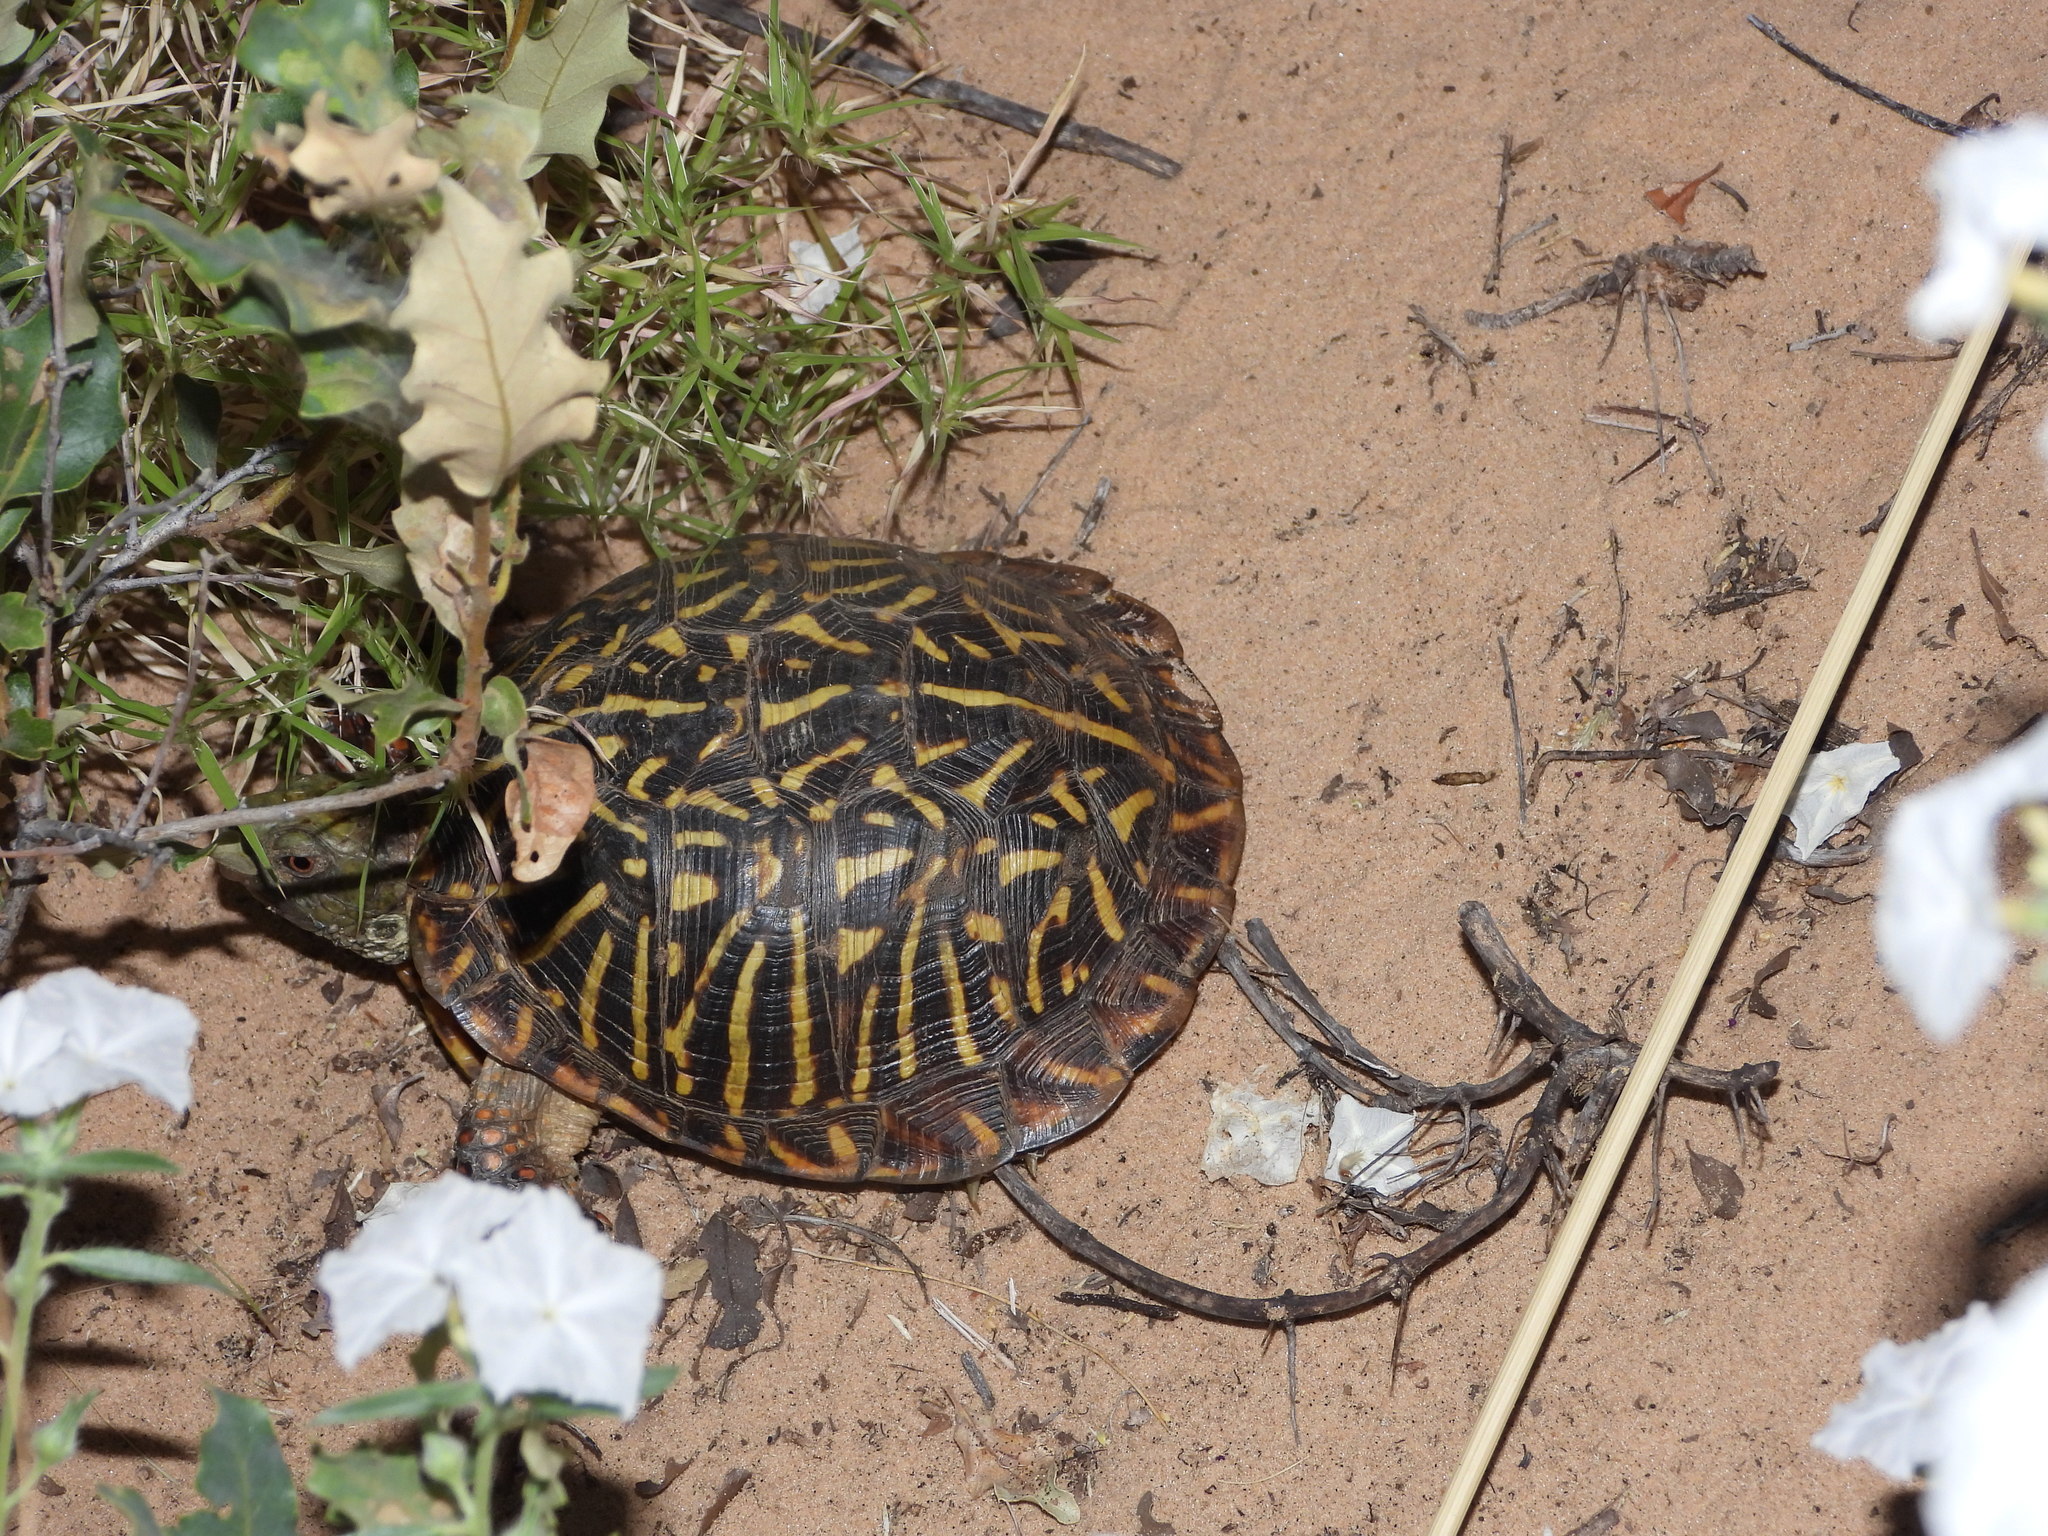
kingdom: Animalia
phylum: Chordata
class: Testudines
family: Emydidae
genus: Terrapene
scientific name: Terrapene ornata
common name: Western box turtle
